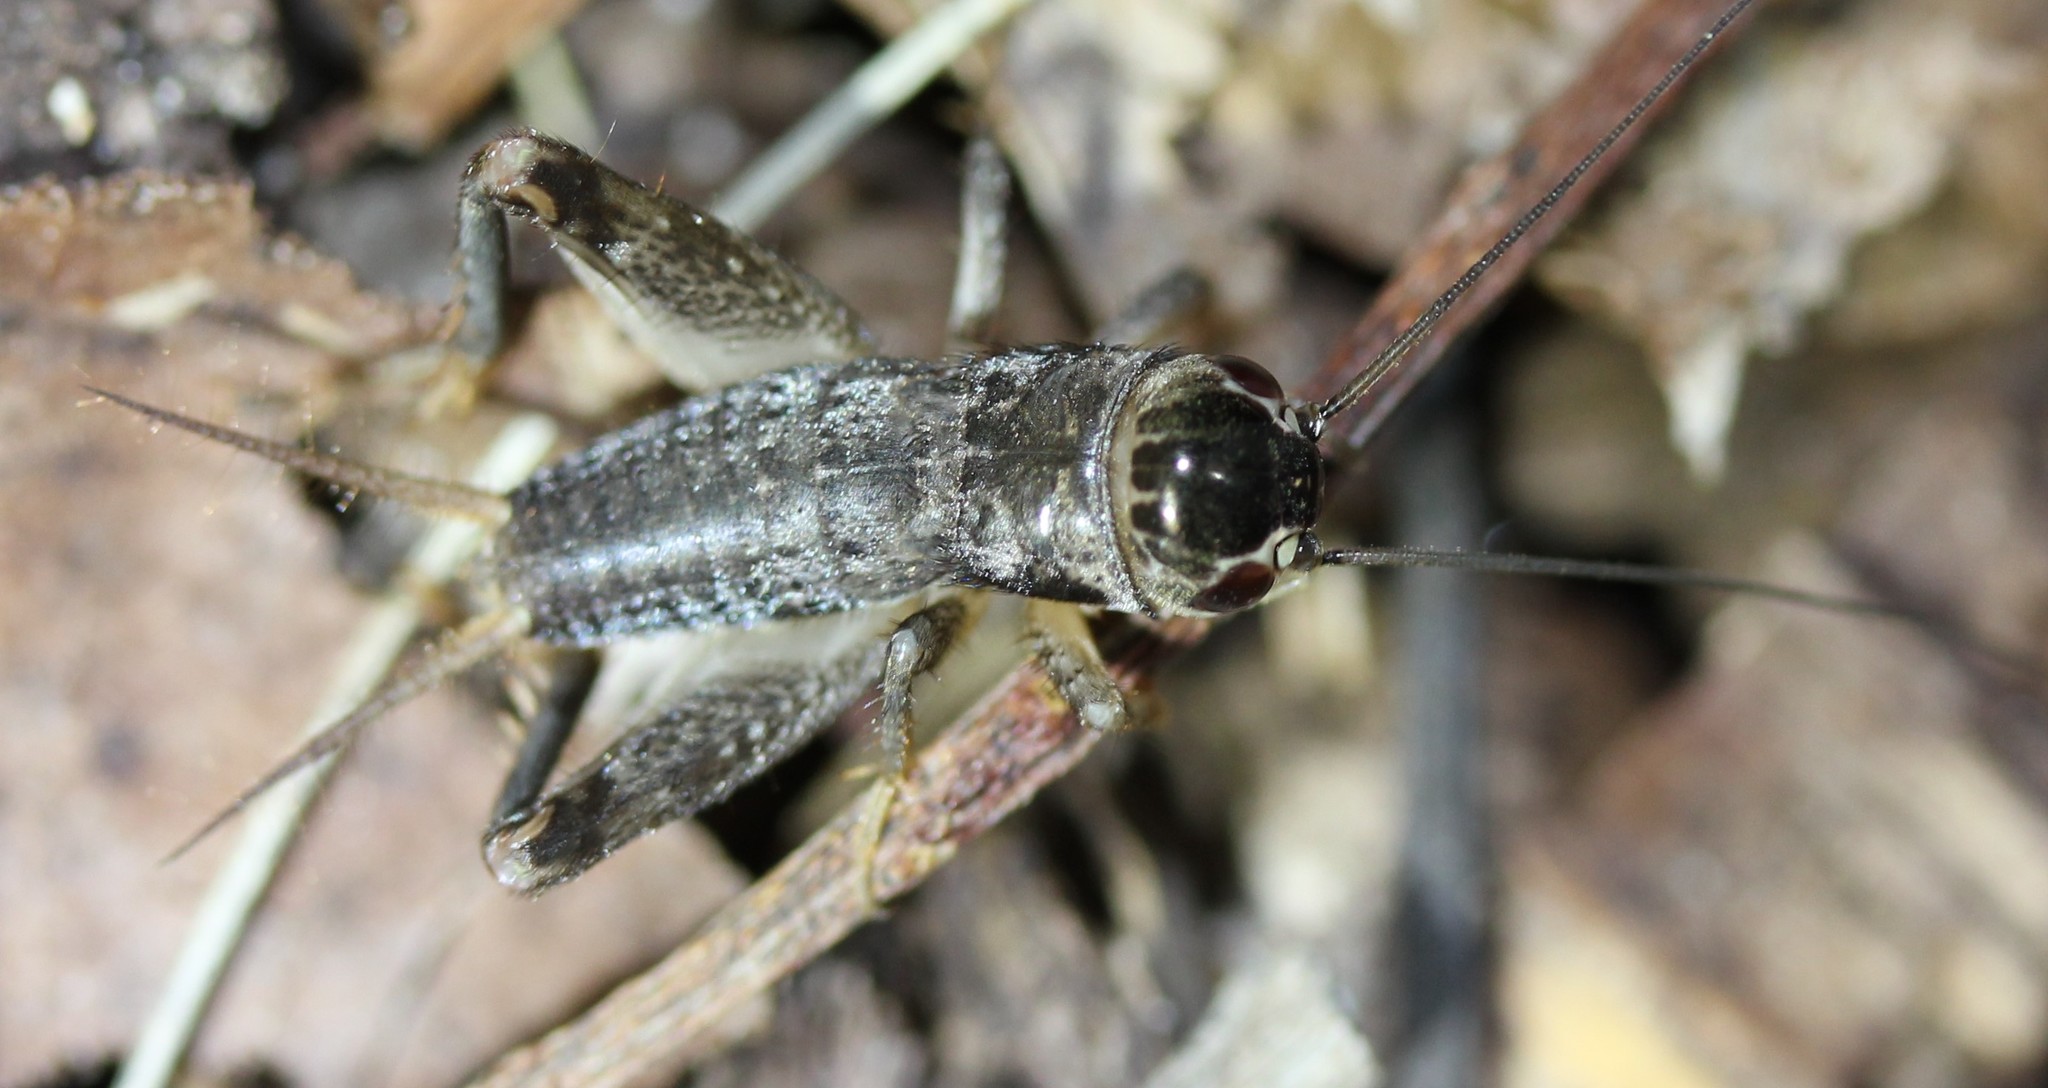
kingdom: Animalia
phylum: Arthropoda
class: Insecta
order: Orthoptera
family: Gryllidae
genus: Miogryllus
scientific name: Miogryllus verticalis
